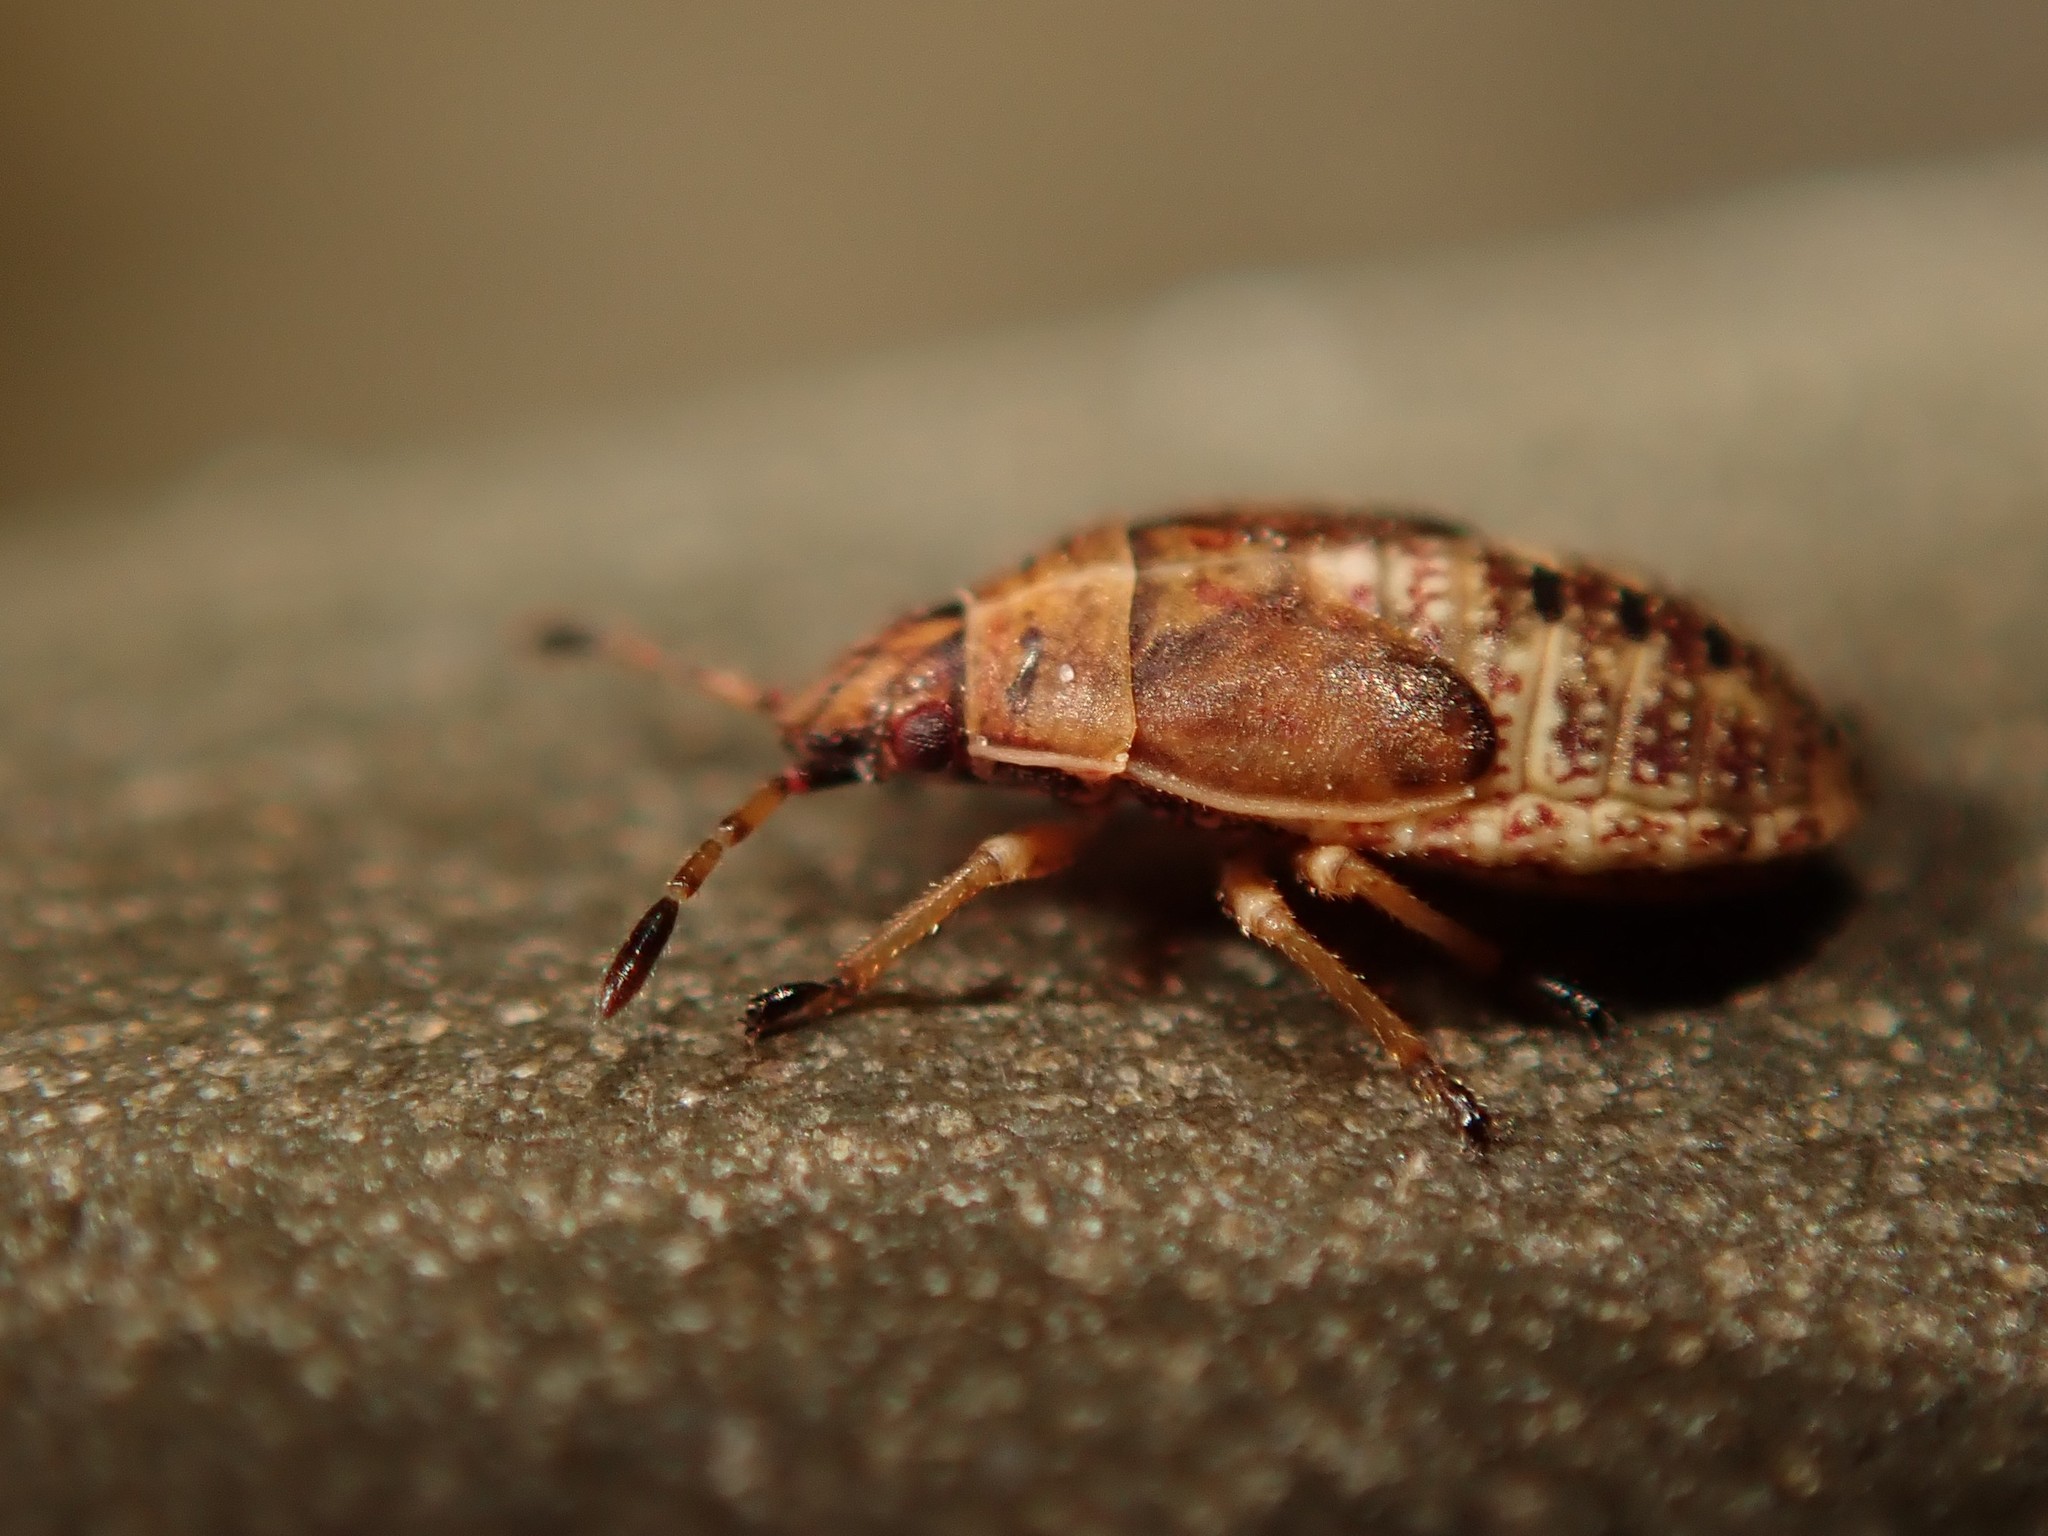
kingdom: Animalia
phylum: Arthropoda
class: Insecta
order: Hemiptera
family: Lygaeidae
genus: Kleidocerys
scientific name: Kleidocerys resedae
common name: Birch catkin bug
